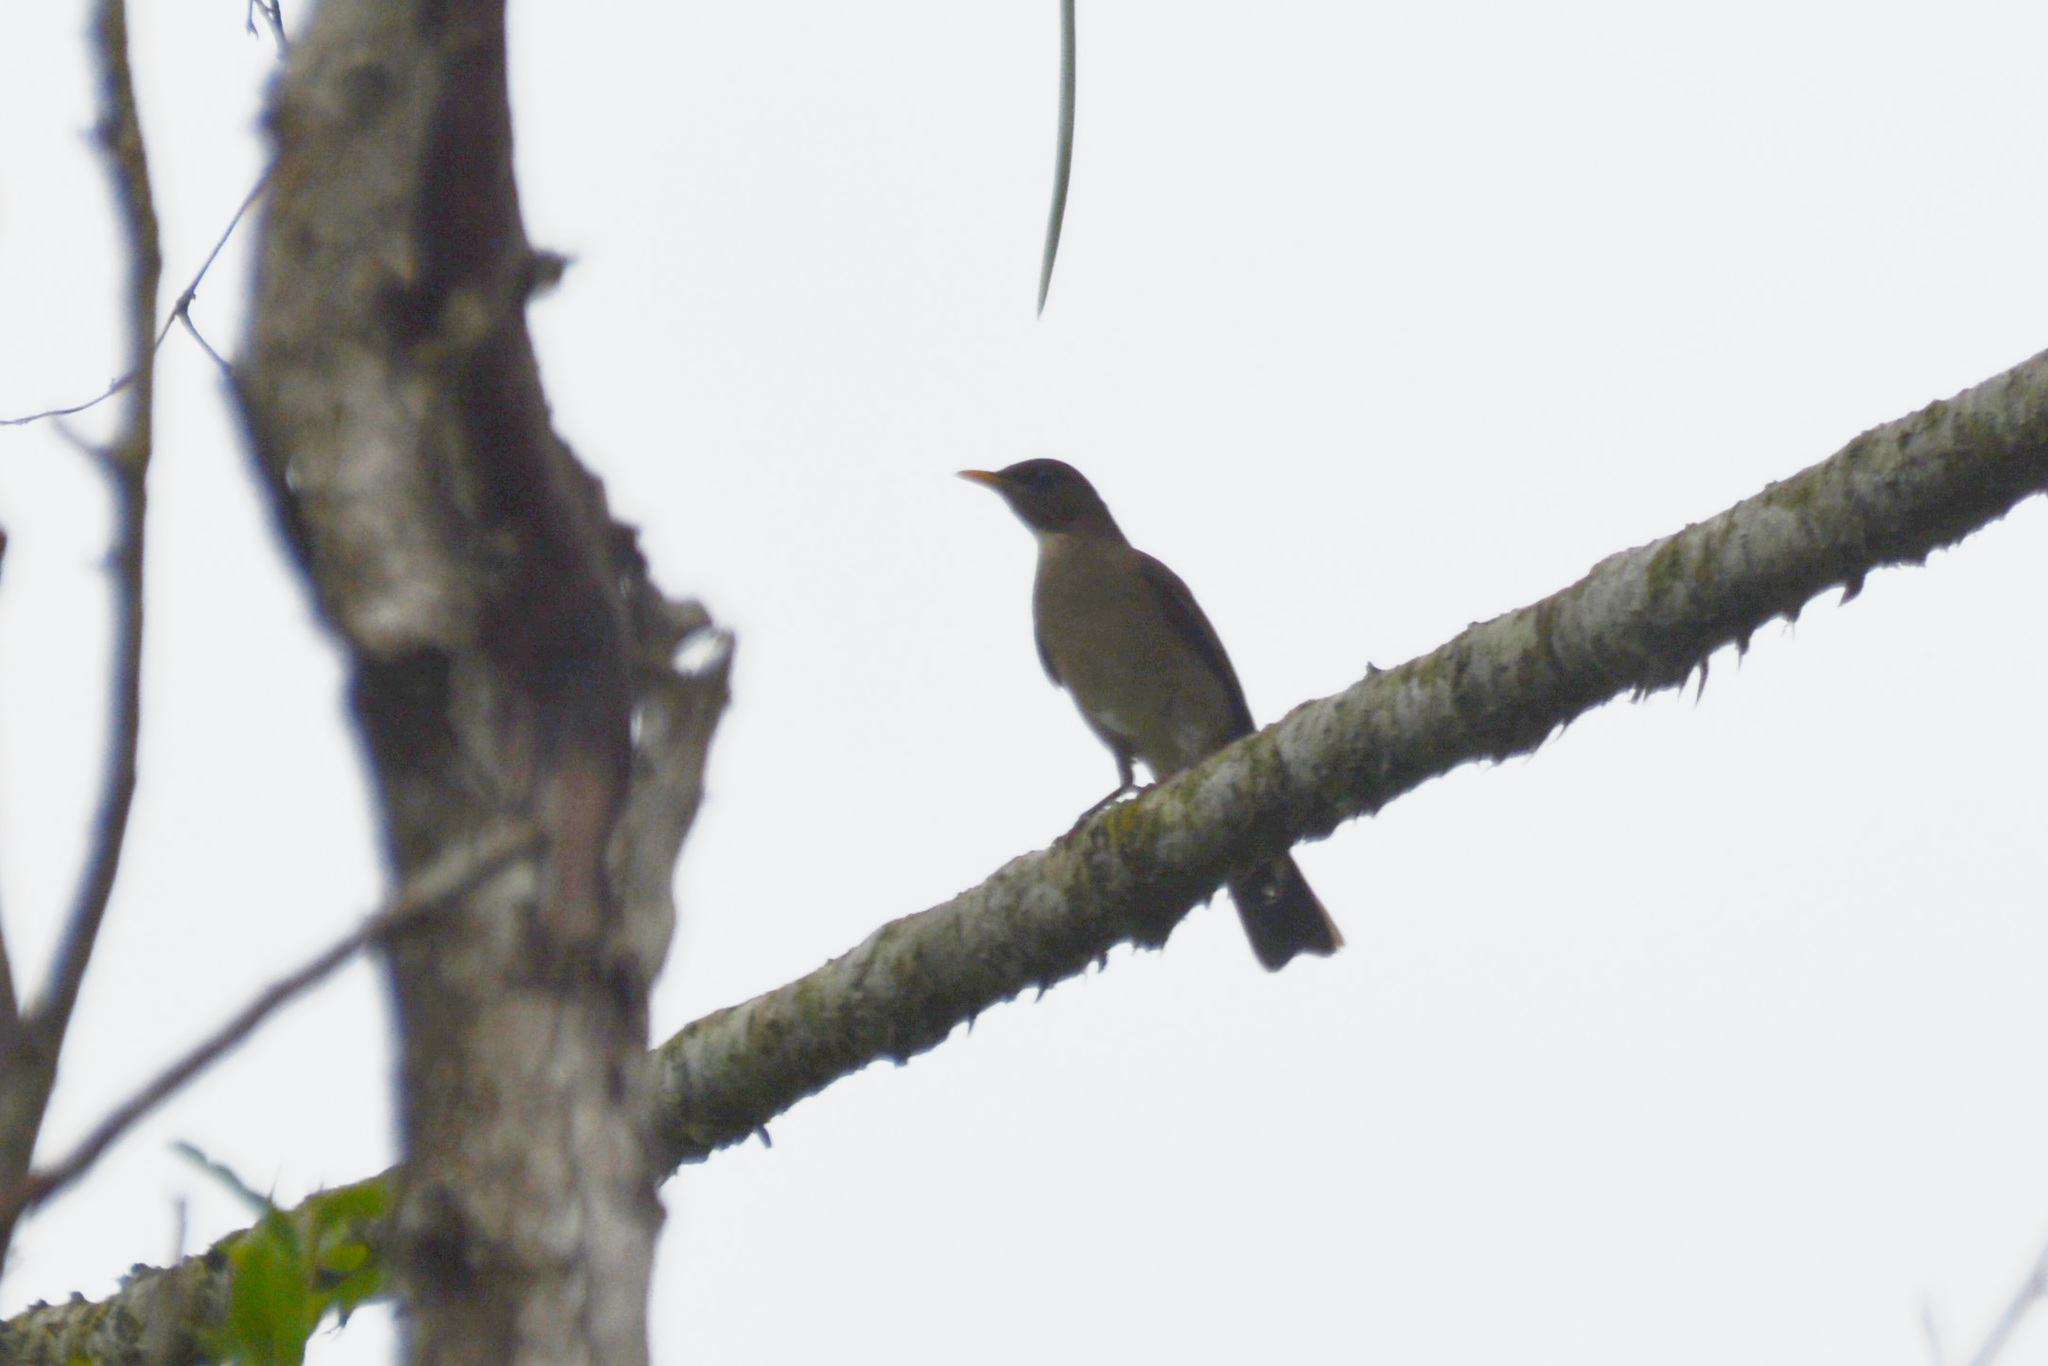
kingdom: Animalia
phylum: Chordata
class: Aves
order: Passeriformes
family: Turdidae
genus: Turdus
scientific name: Turdus amaurochalinus
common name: Creamy-bellied thrush
